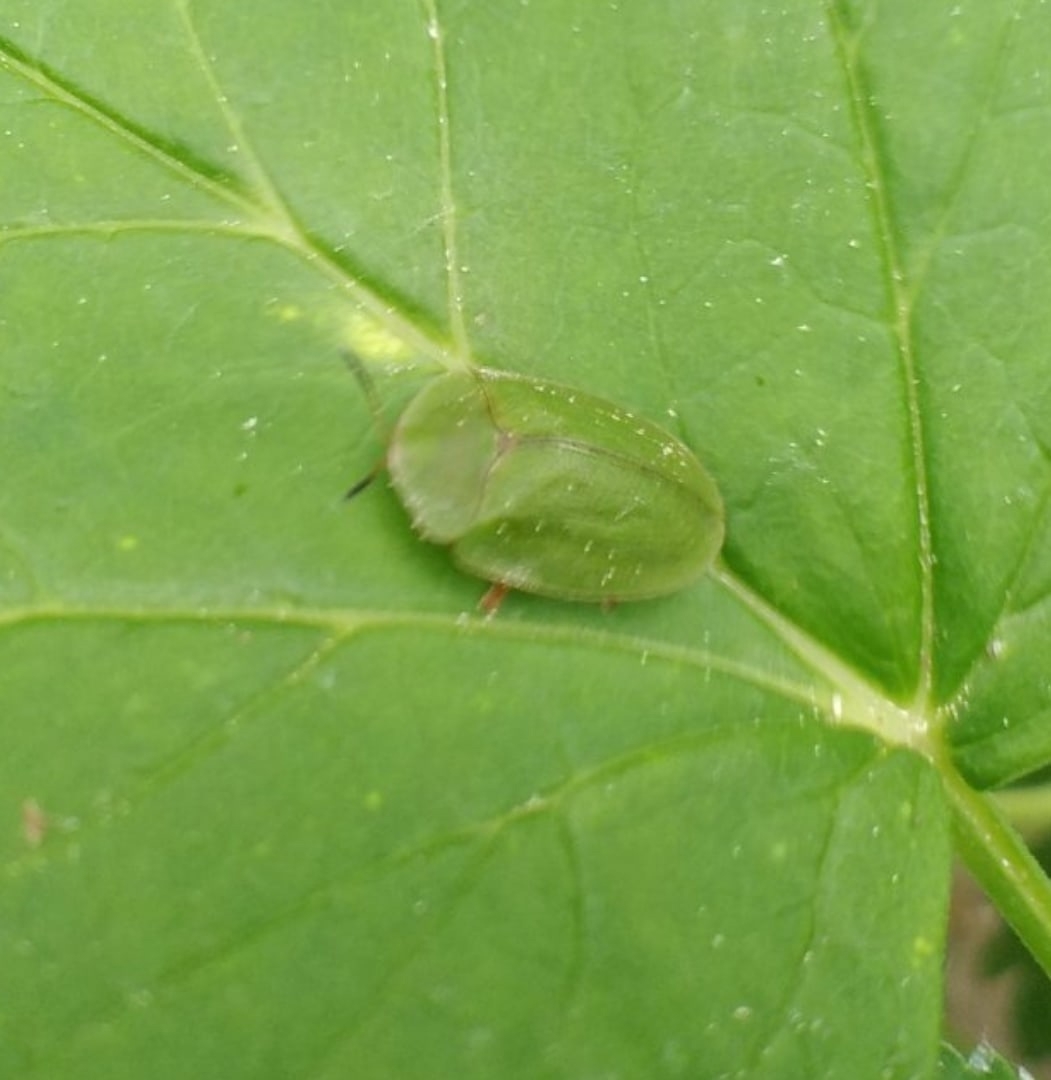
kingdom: Animalia
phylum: Arthropoda
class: Insecta
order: Coleoptera
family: Chrysomelidae
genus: Cassida
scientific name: Cassida viridis
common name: Green tortoise beetle
